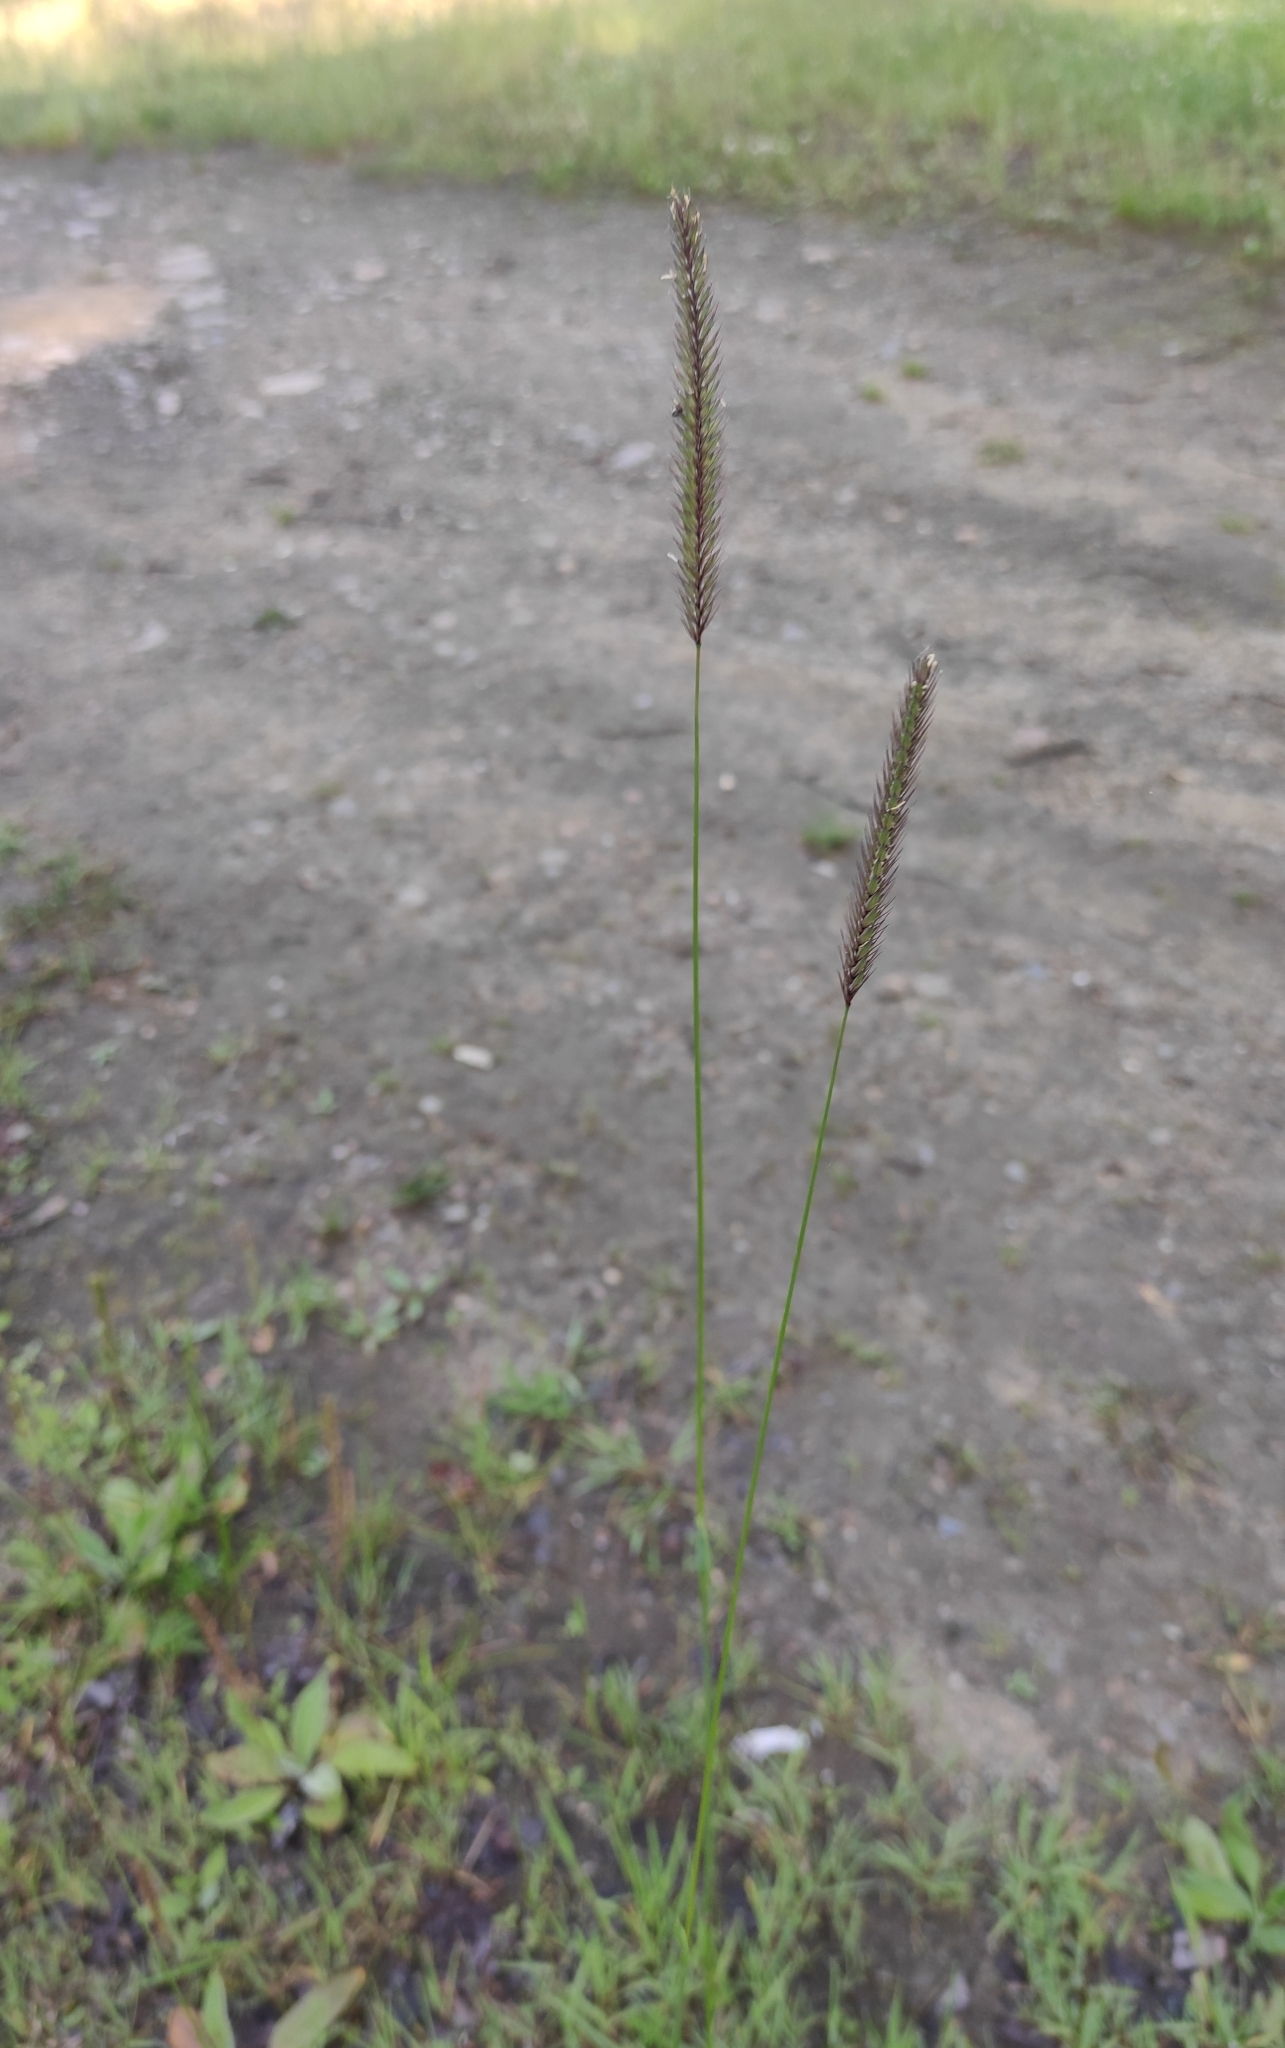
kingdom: Plantae
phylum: Tracheophyta
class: Liliopsida
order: Poales
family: Poaceae
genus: Hordeum
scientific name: Hordeum brevisubulatum
